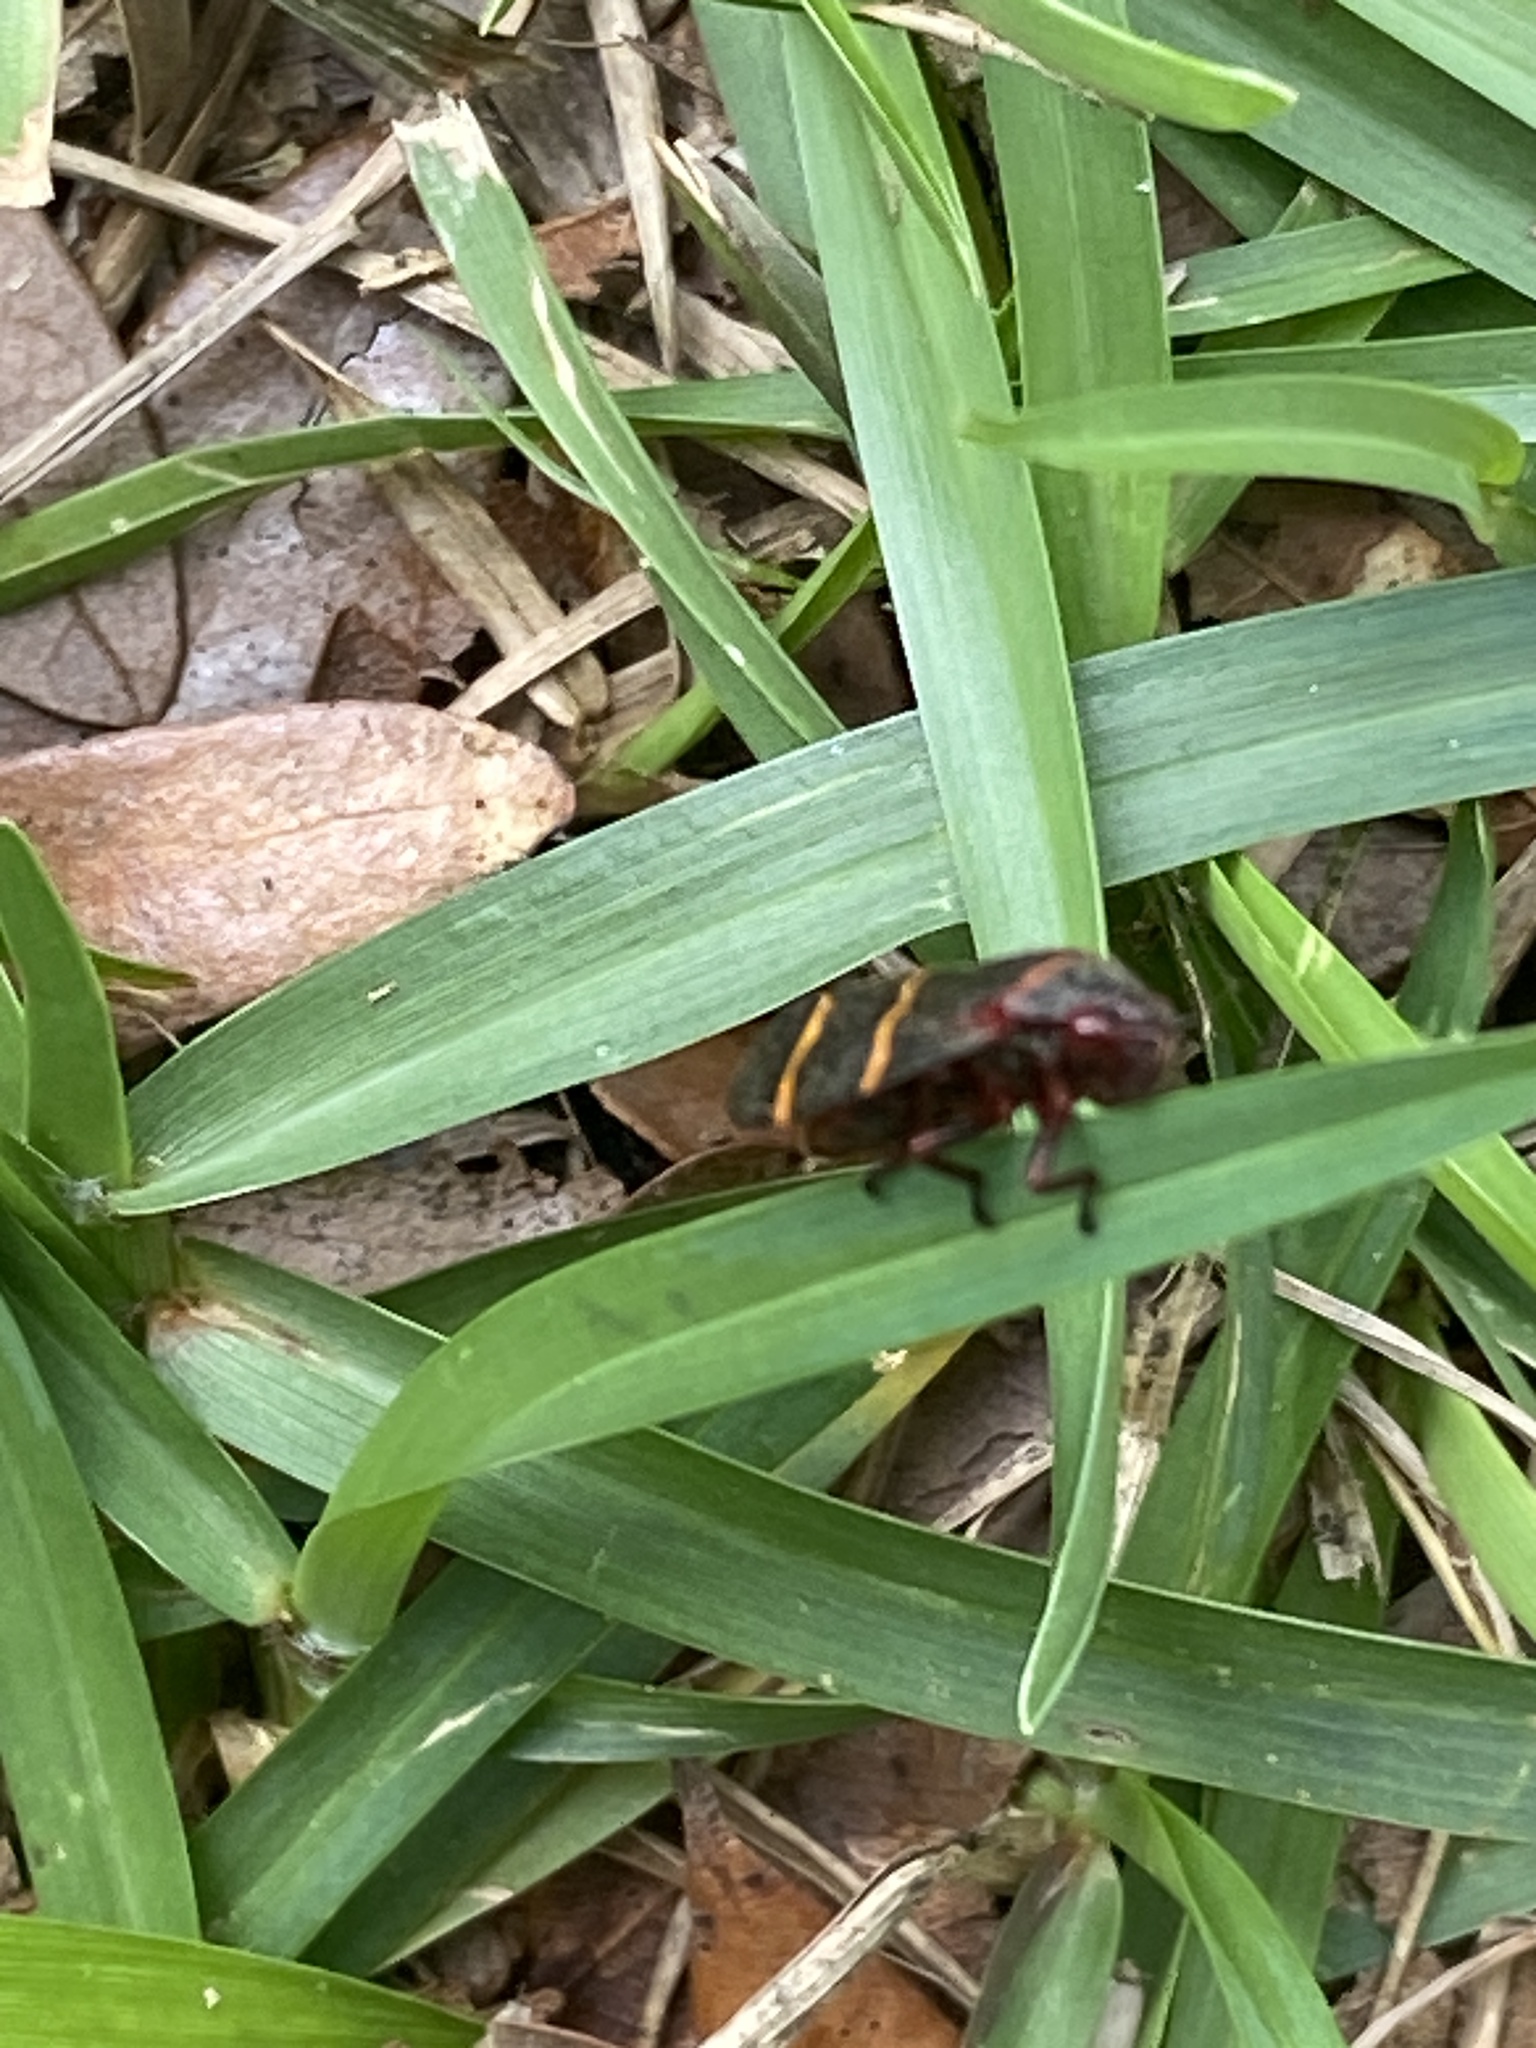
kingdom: Animalia
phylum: Arthropoda
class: Insecta
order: Hemiptera
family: Cercopidae
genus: Prosapia
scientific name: Prosapia bicincta
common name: Twolined spittlebug
